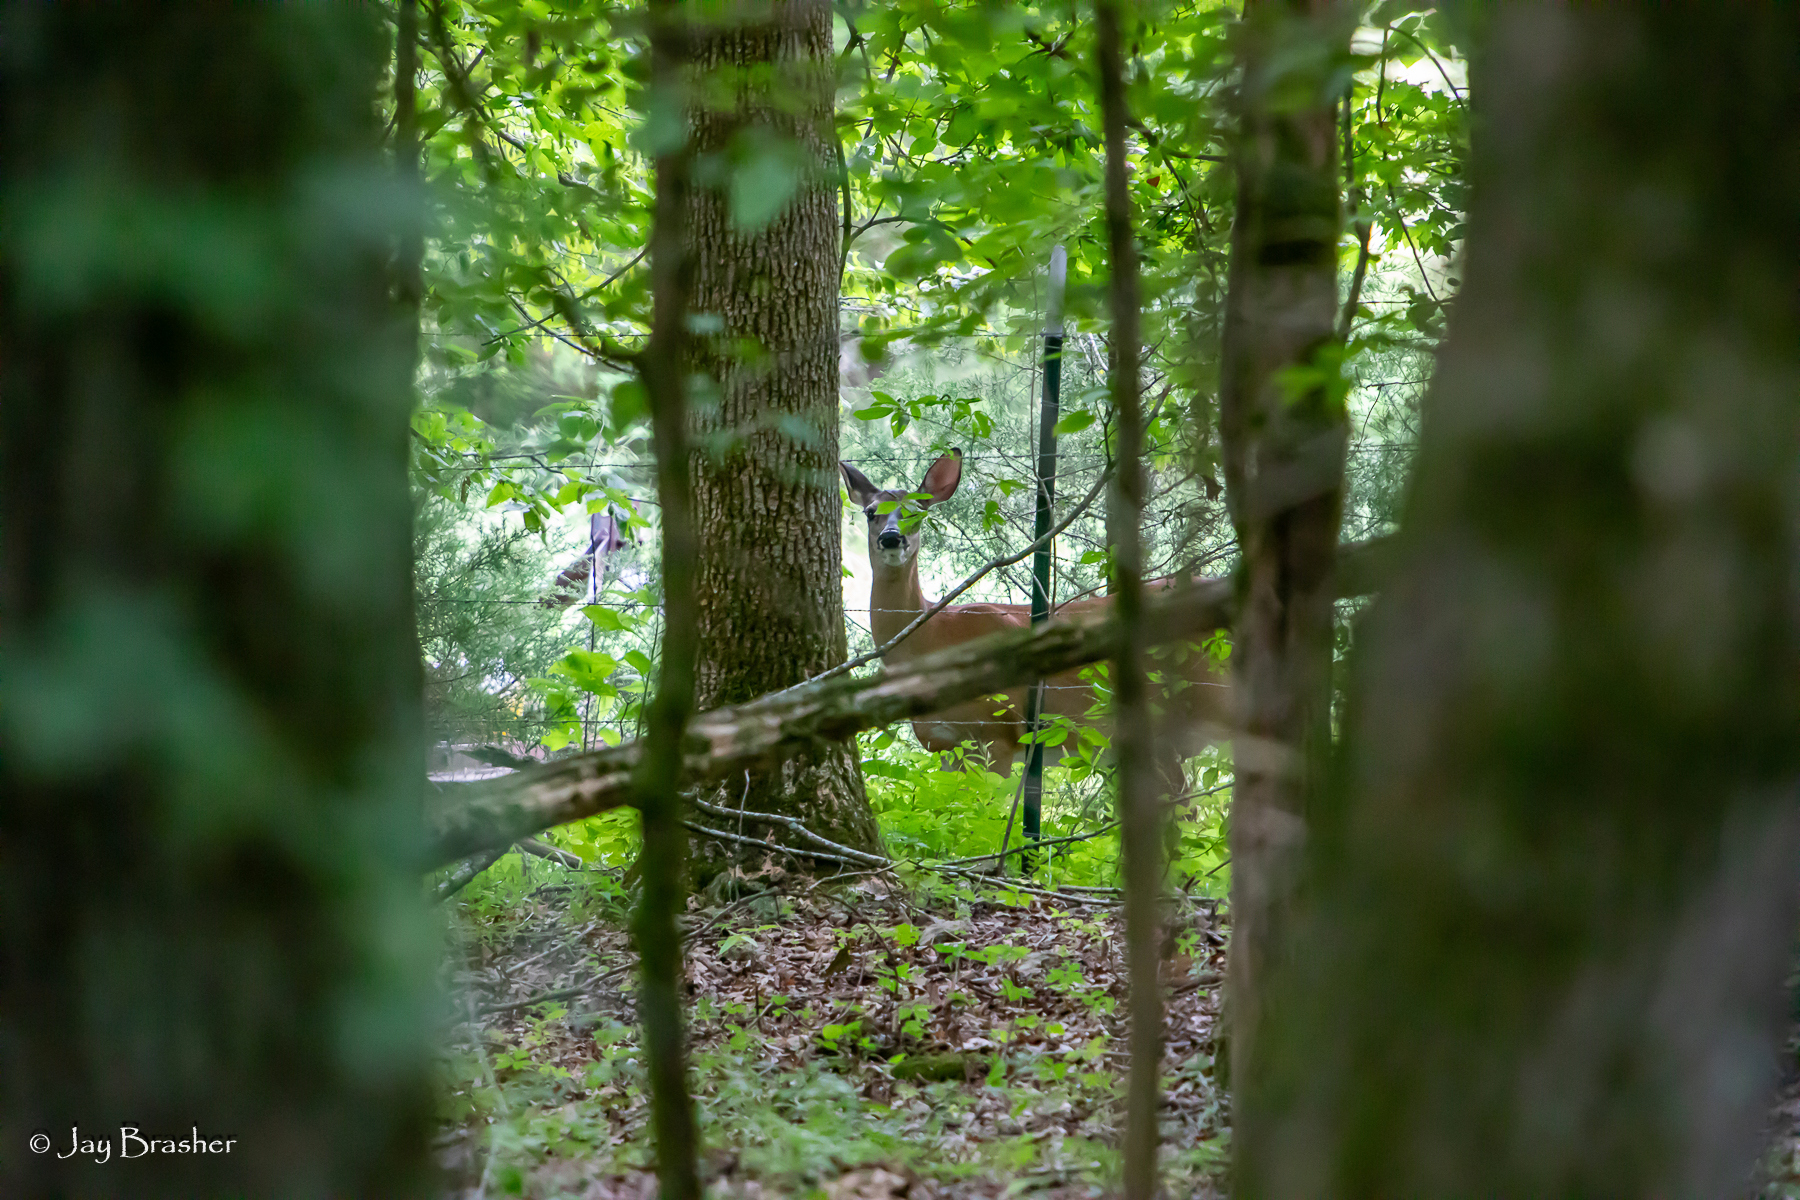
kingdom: Animalia
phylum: Chordata
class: Mammalia
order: Artiodactyla
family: Cervidae
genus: Odocoileus
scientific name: Odocoileus virginianus
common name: White-tailed deer
